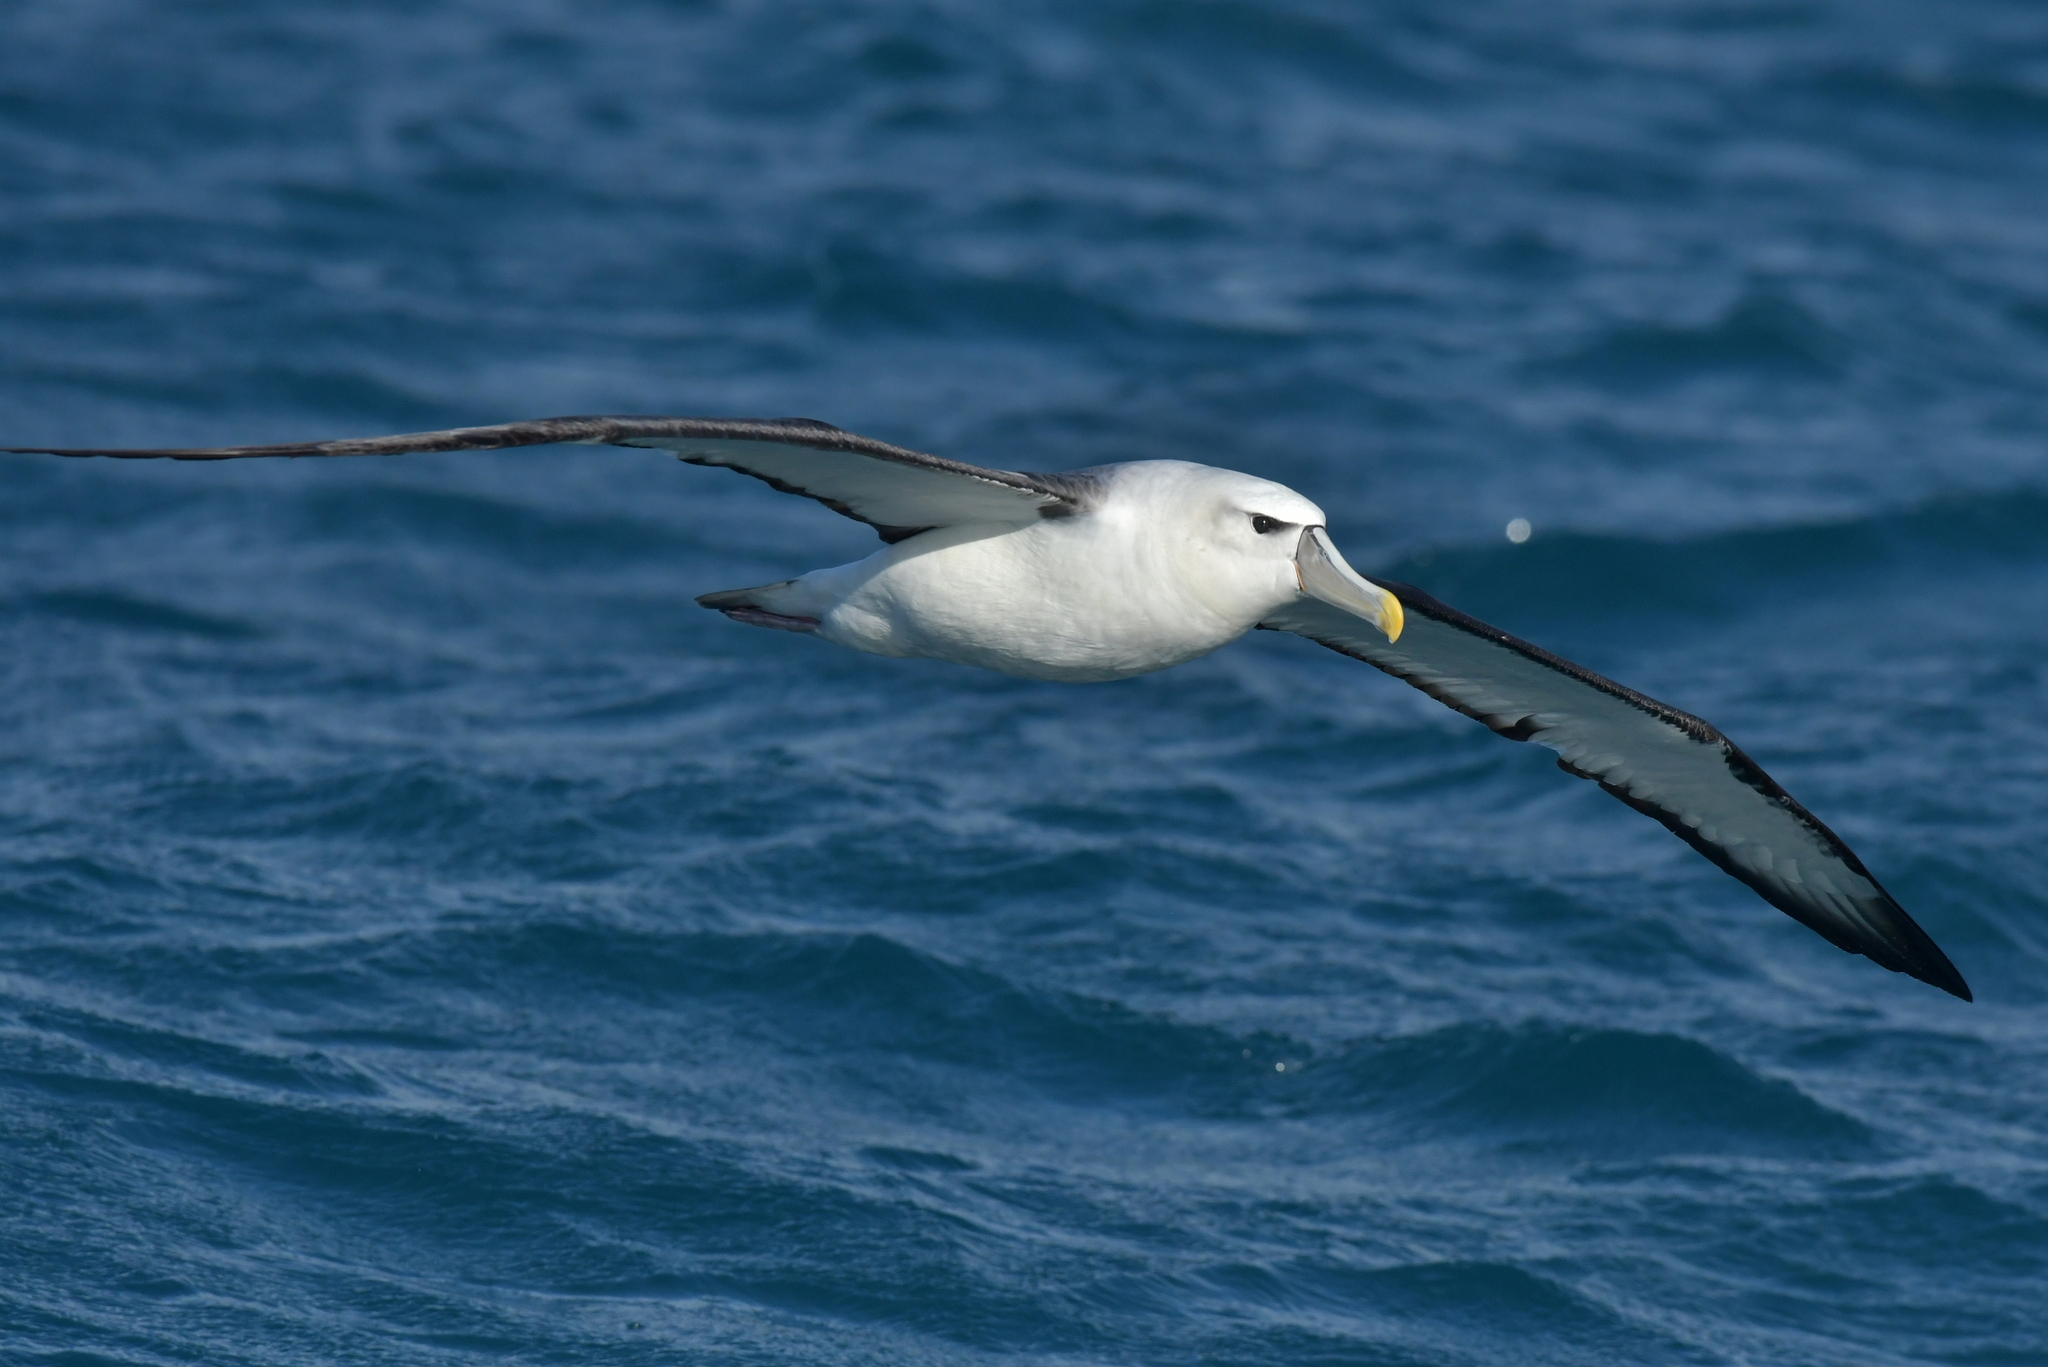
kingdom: Animalia
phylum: Chordata
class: Aves
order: Procellariiformes
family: Diomedeidae
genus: Thalassarche
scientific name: Thalassarche cauta
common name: Shy albatross
